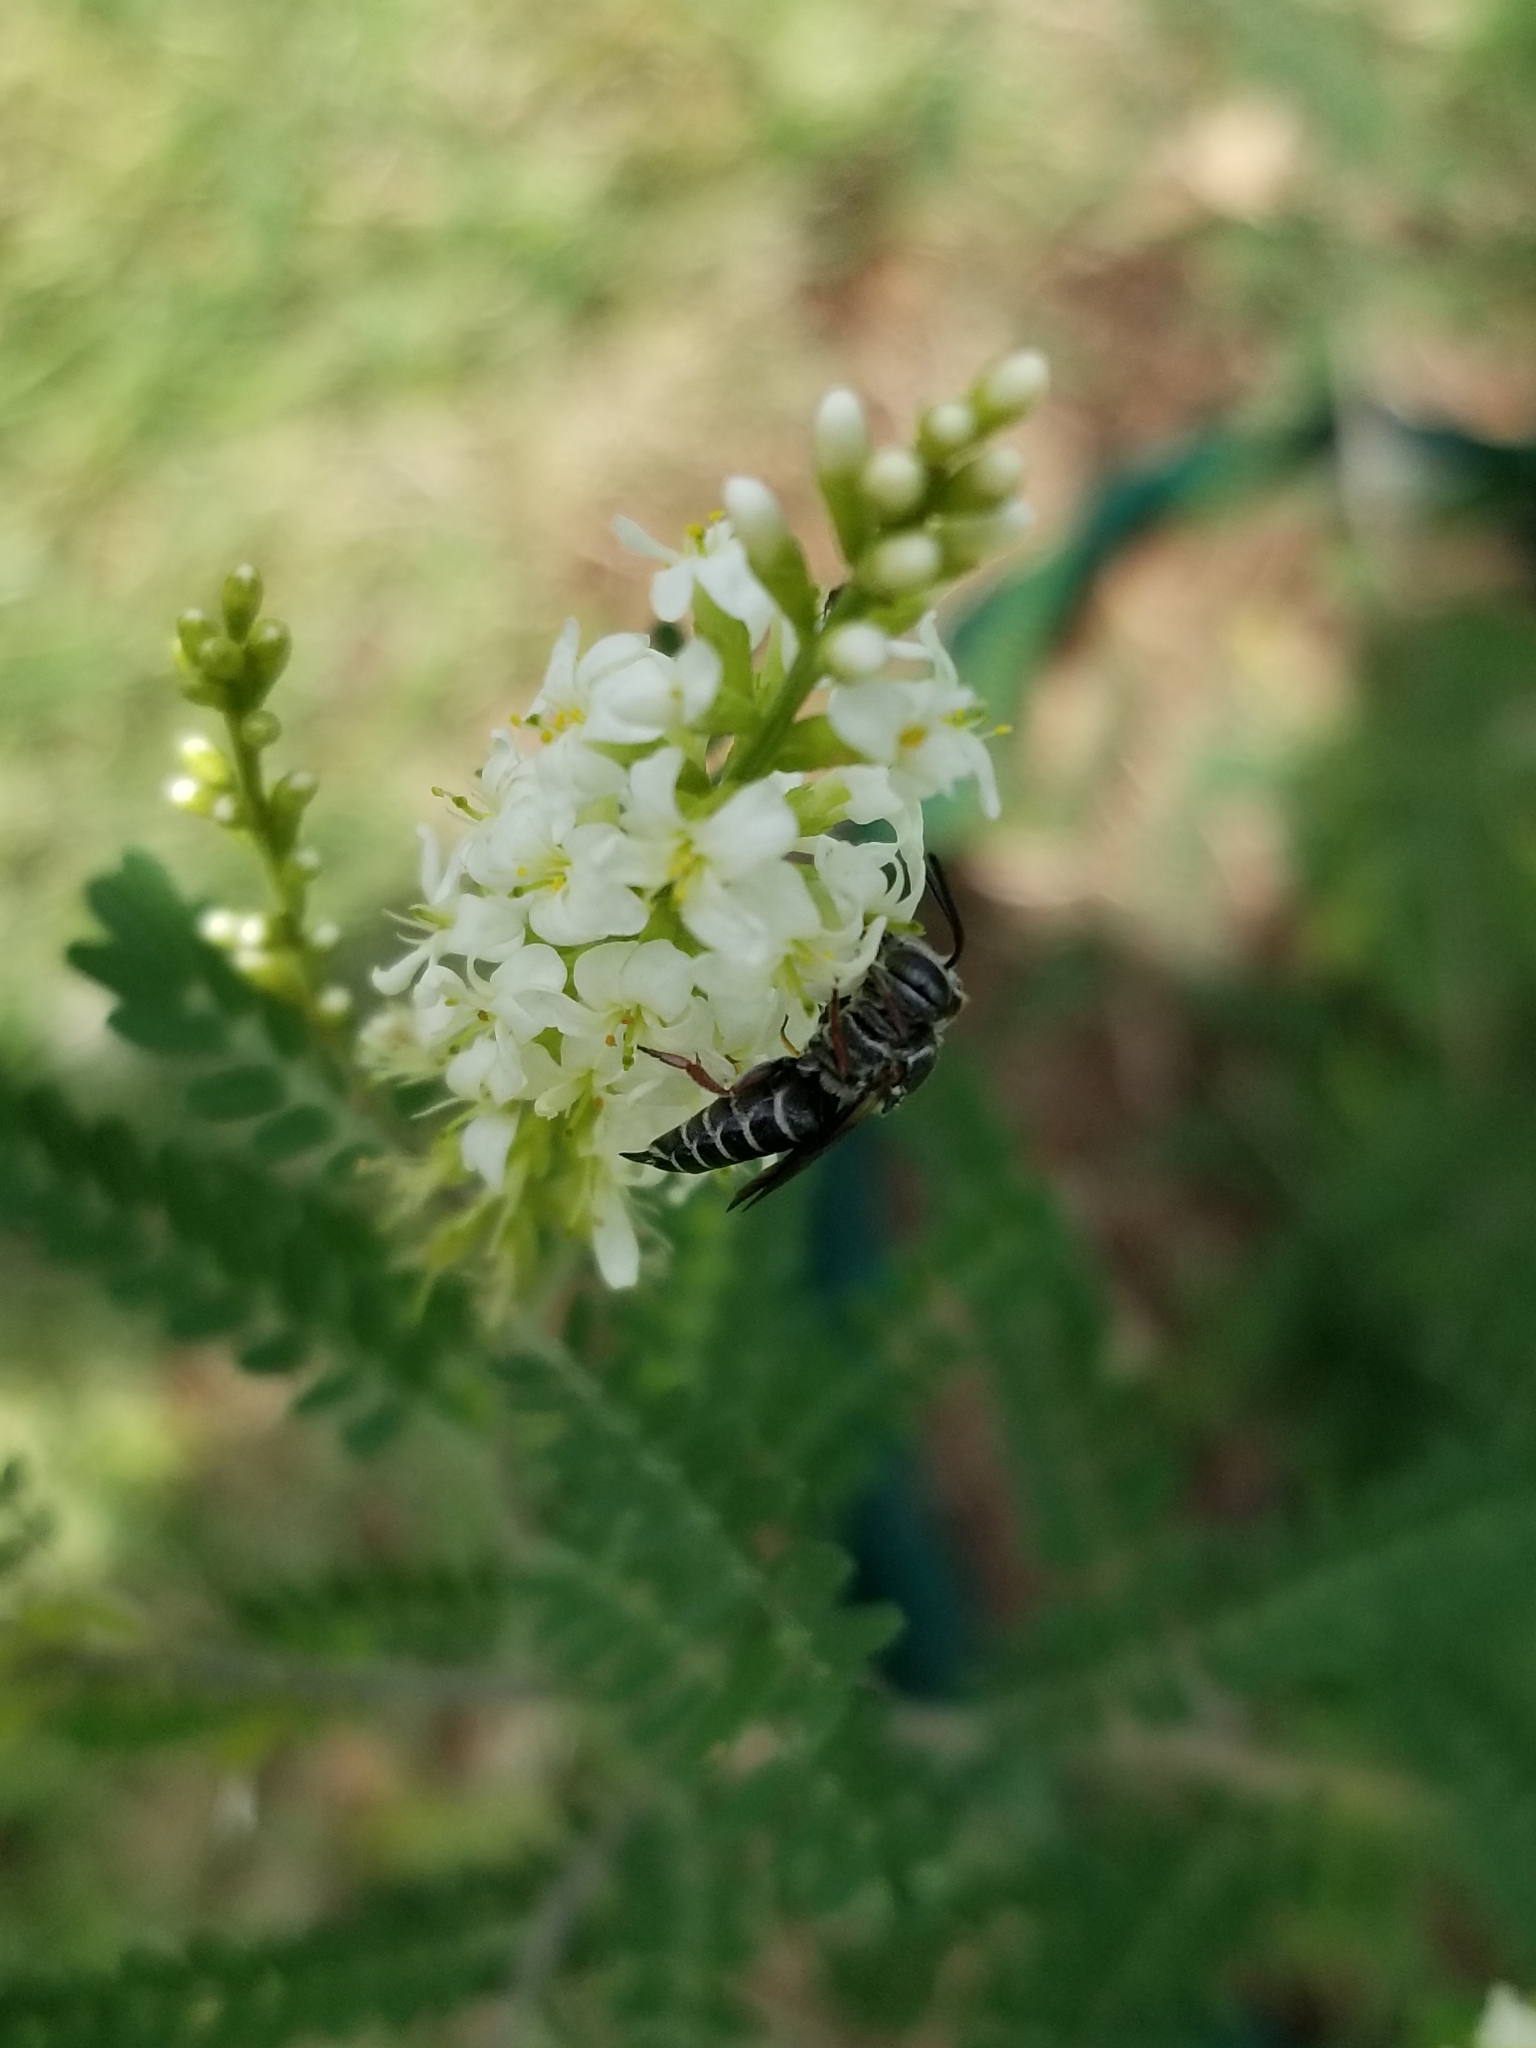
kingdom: Animalia
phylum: Arthropoda
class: Insecta
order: Hymenoptera
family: Megachilidae
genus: Coelioxys
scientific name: Coelioxys sayi
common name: Say's cuckoo leaf-cutter bee
